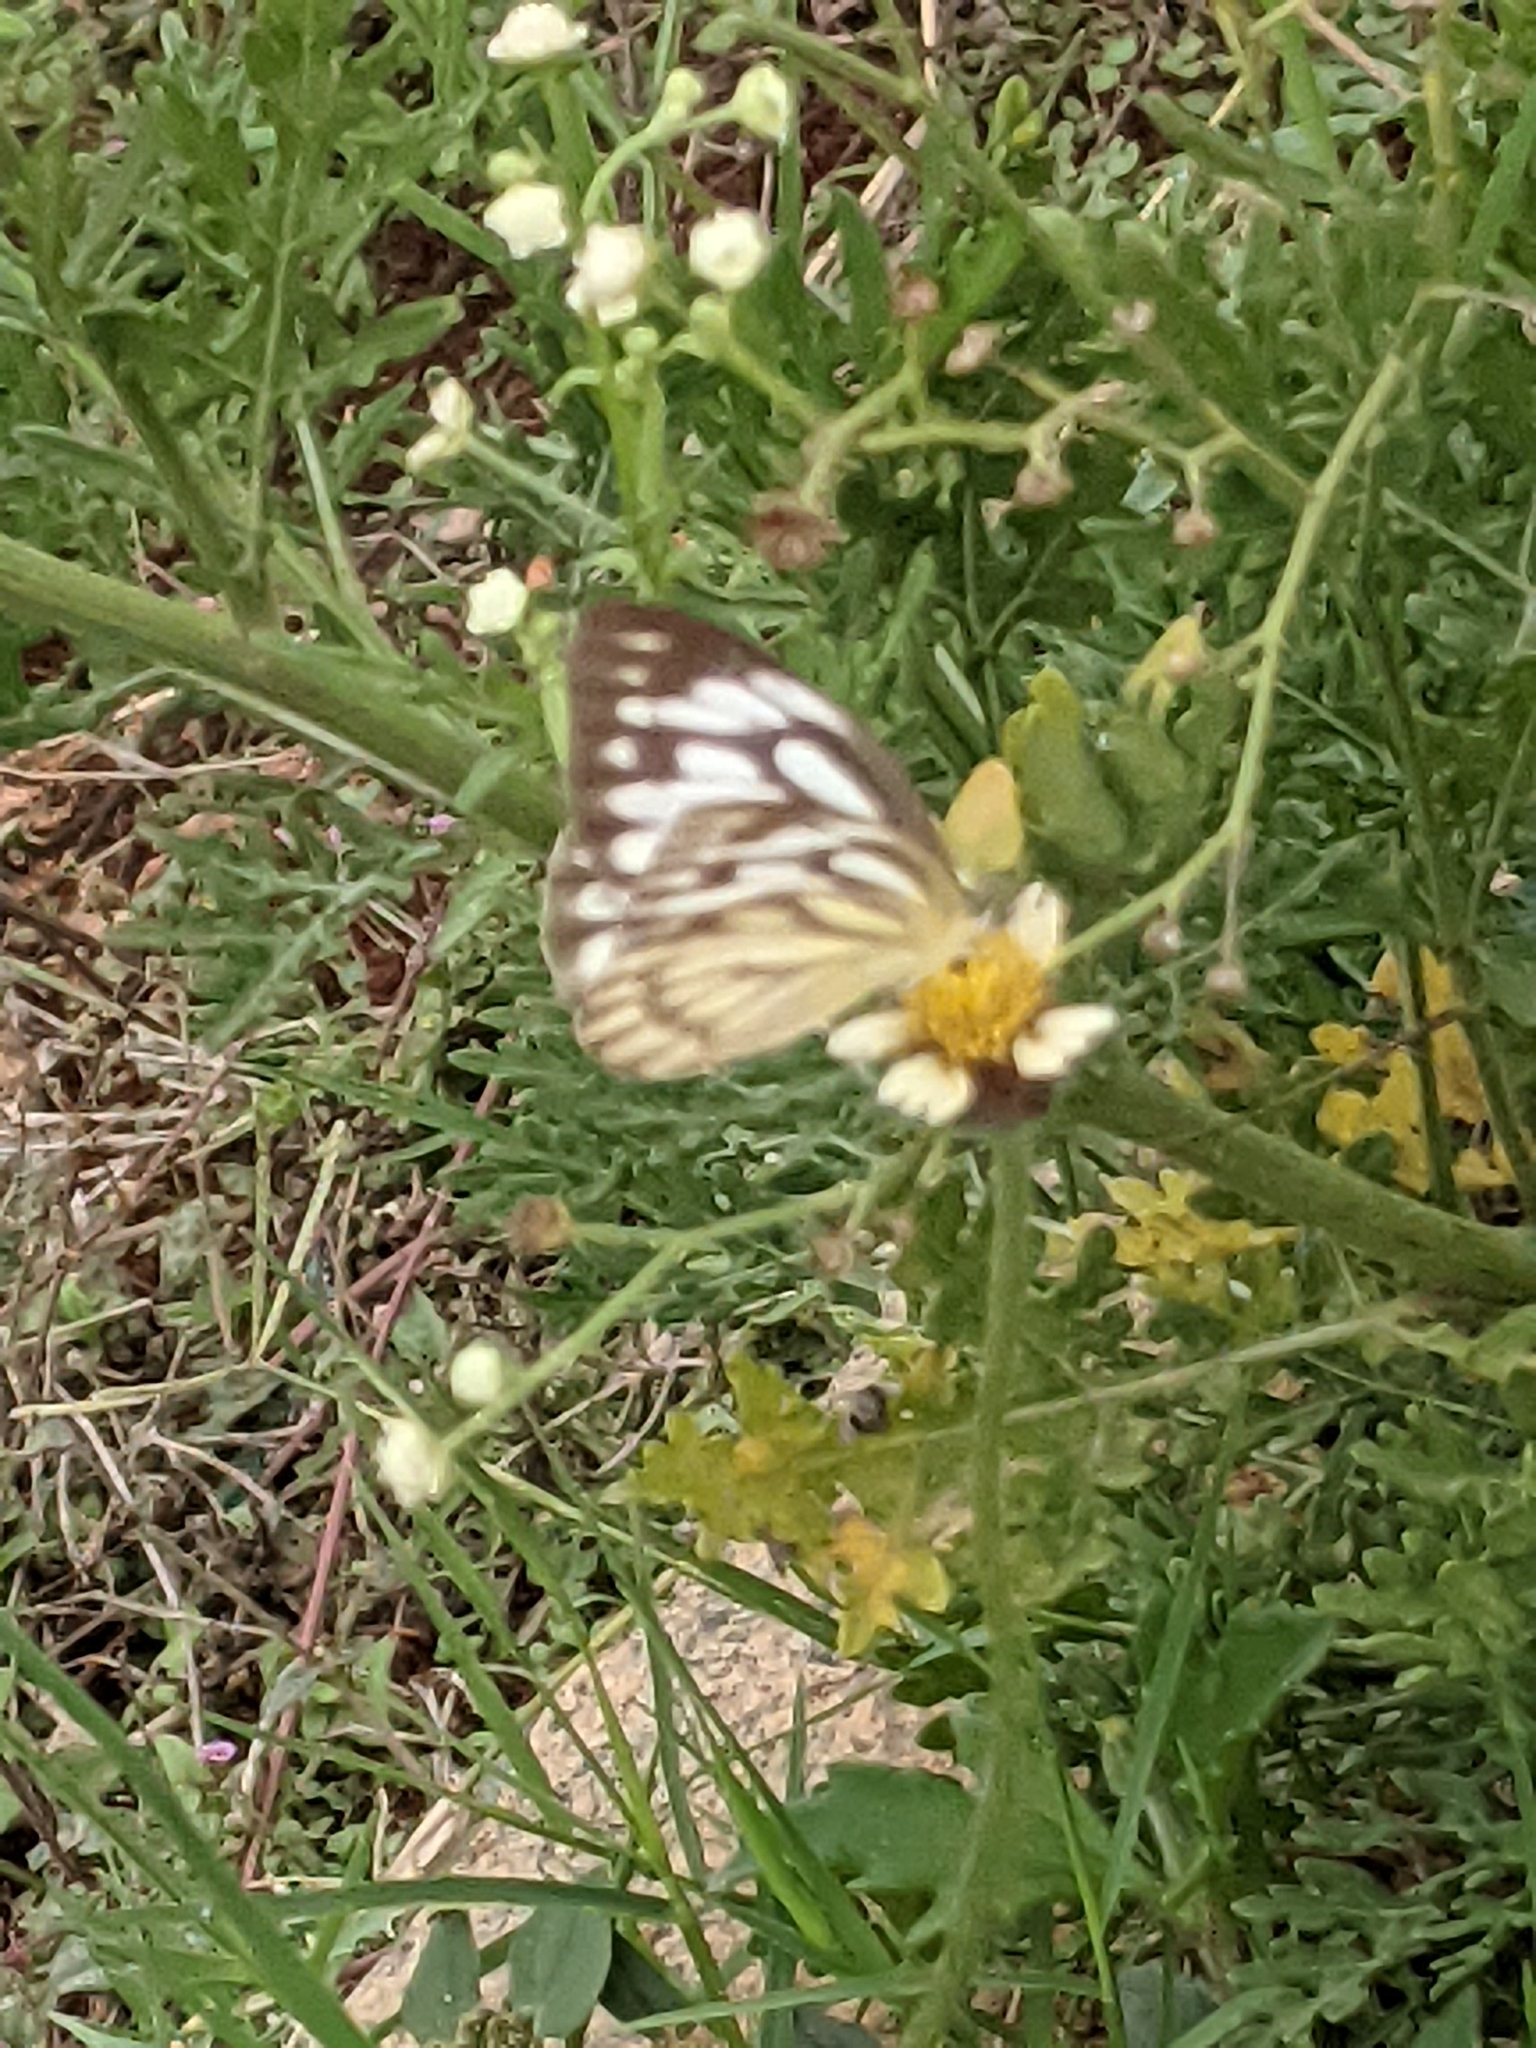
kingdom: Animalia
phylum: Arthropoda
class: Insecta
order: Lepidoptera
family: Pieridae
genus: Cepora
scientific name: Cepora nerissa
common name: Common gull
